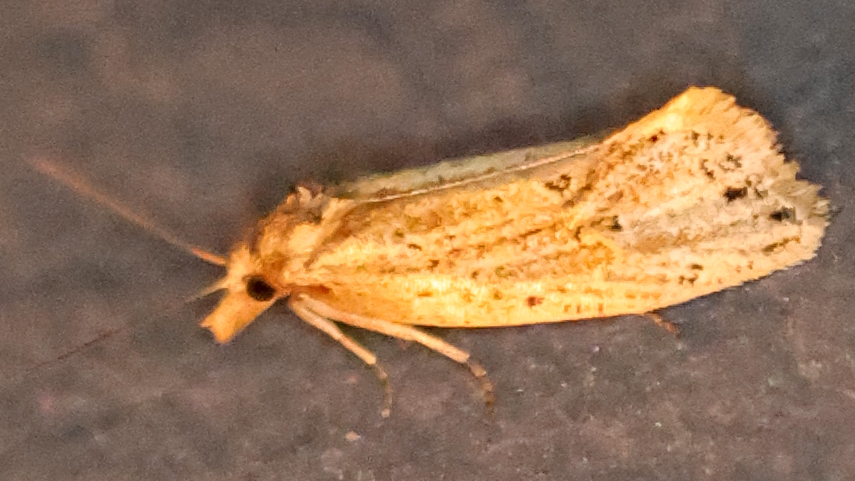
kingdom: Animalia
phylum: Arthropoda
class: Insecta
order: Lepidoptera
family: Tortricidae
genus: Aethes
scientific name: Aethes atomosana
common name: Two-spotted aethes
